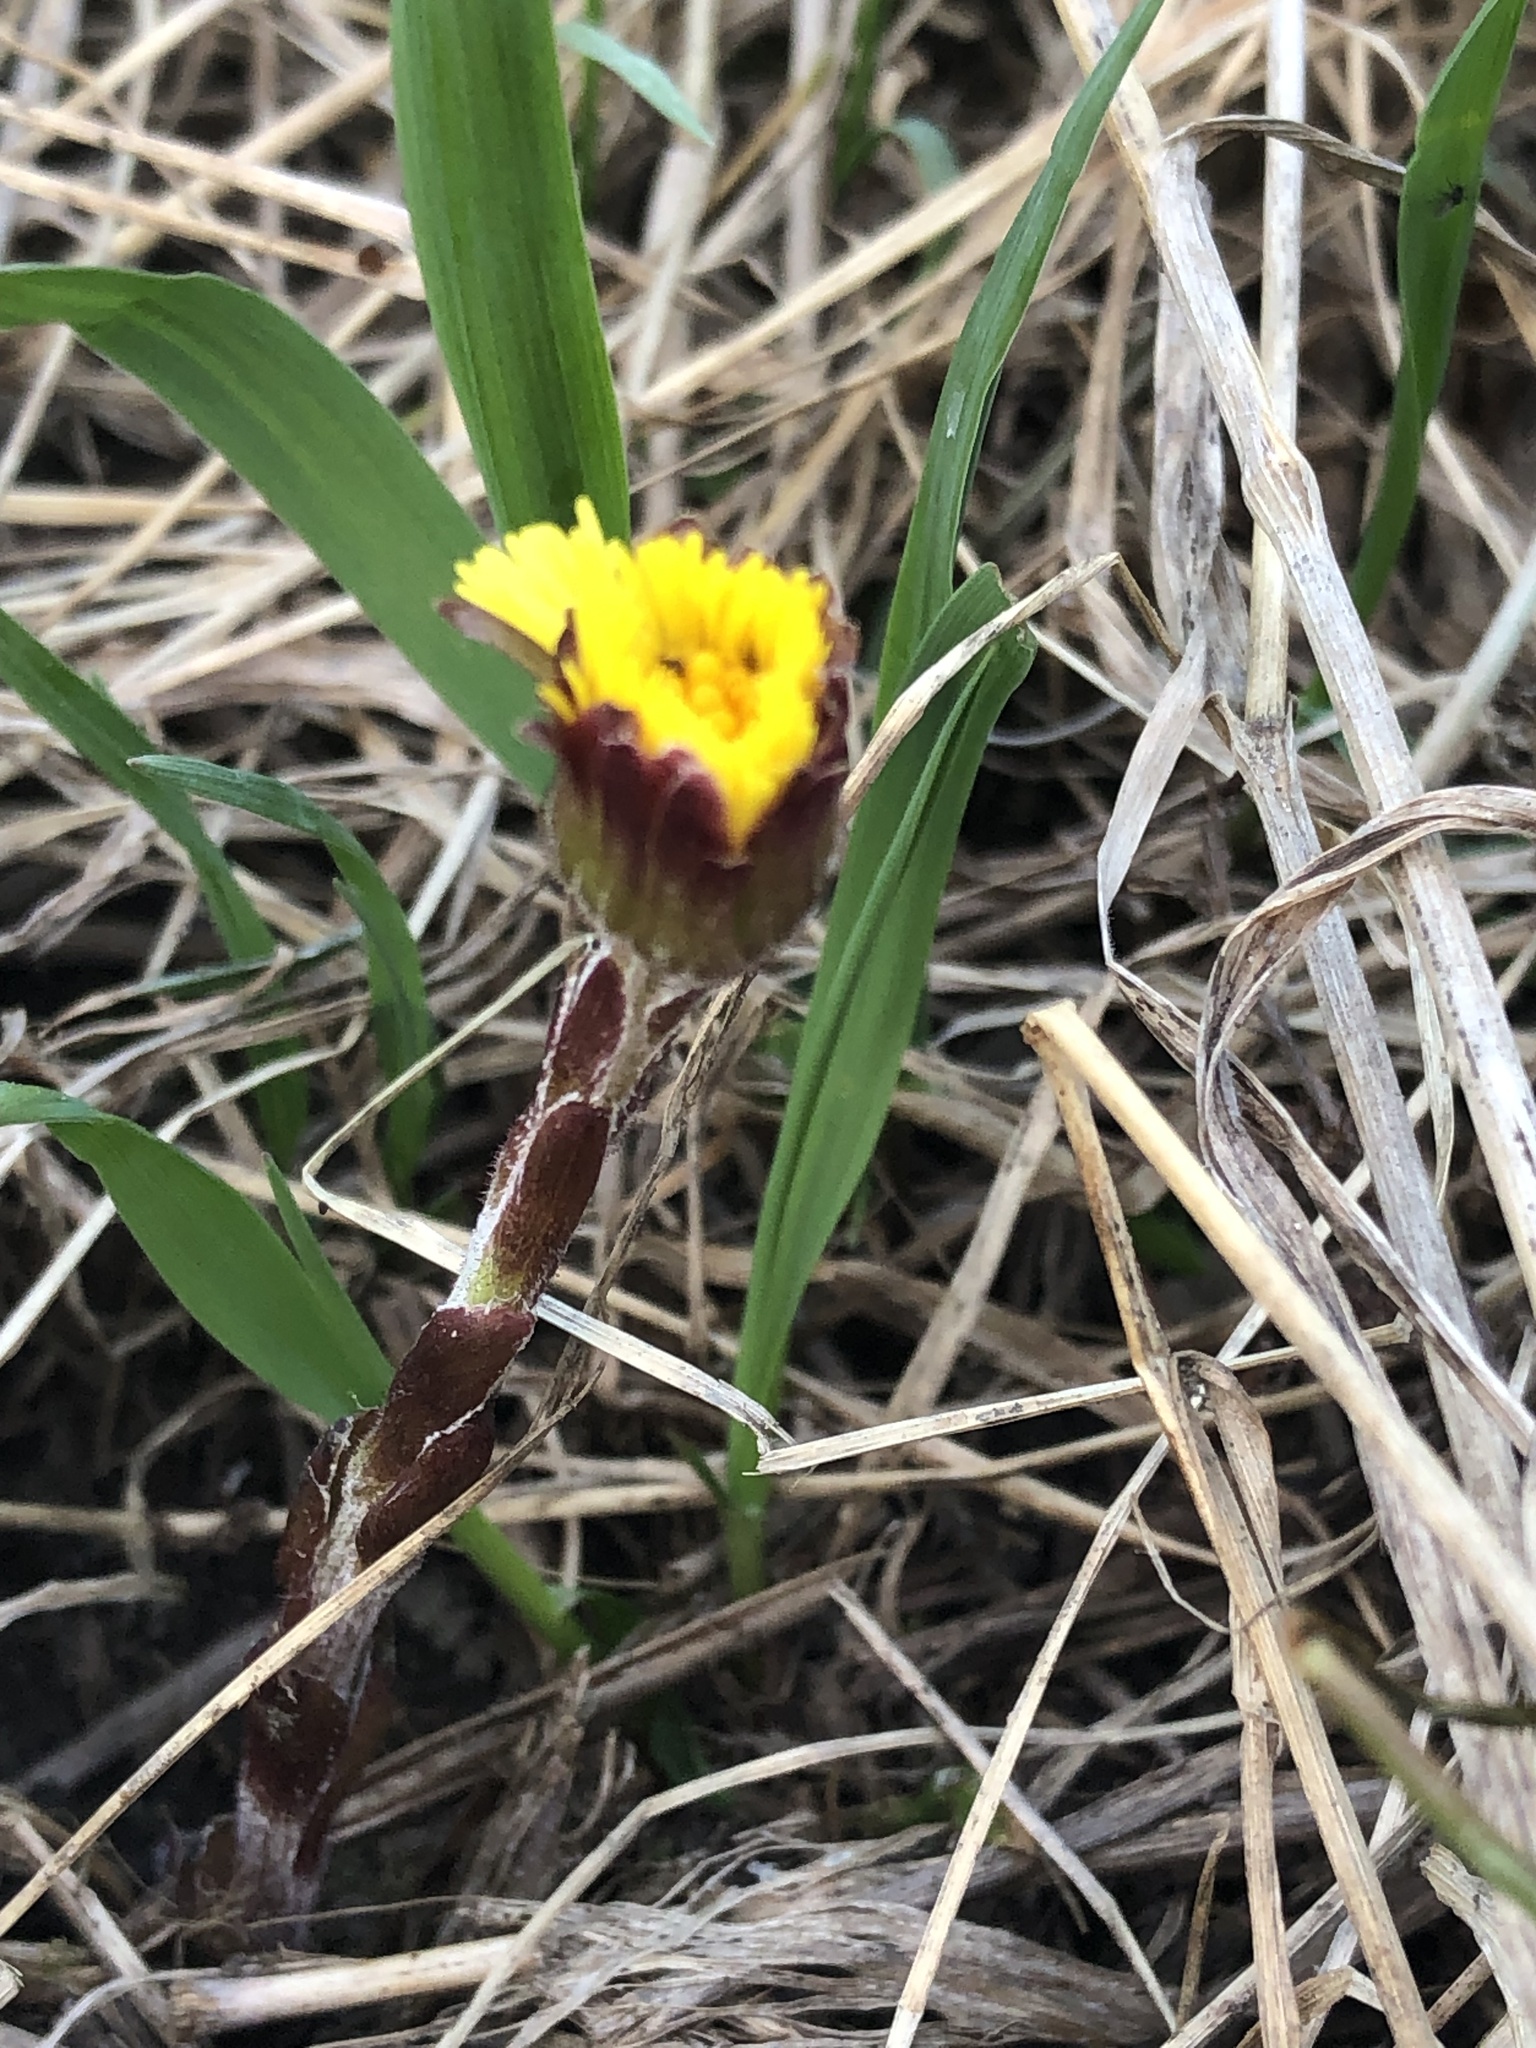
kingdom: Plantae
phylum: Tracheophyta
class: Magnoliopsida
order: Asterales
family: Asteraceae
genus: Tussilago
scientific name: Tussilago farfara
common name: Coltsfoot
